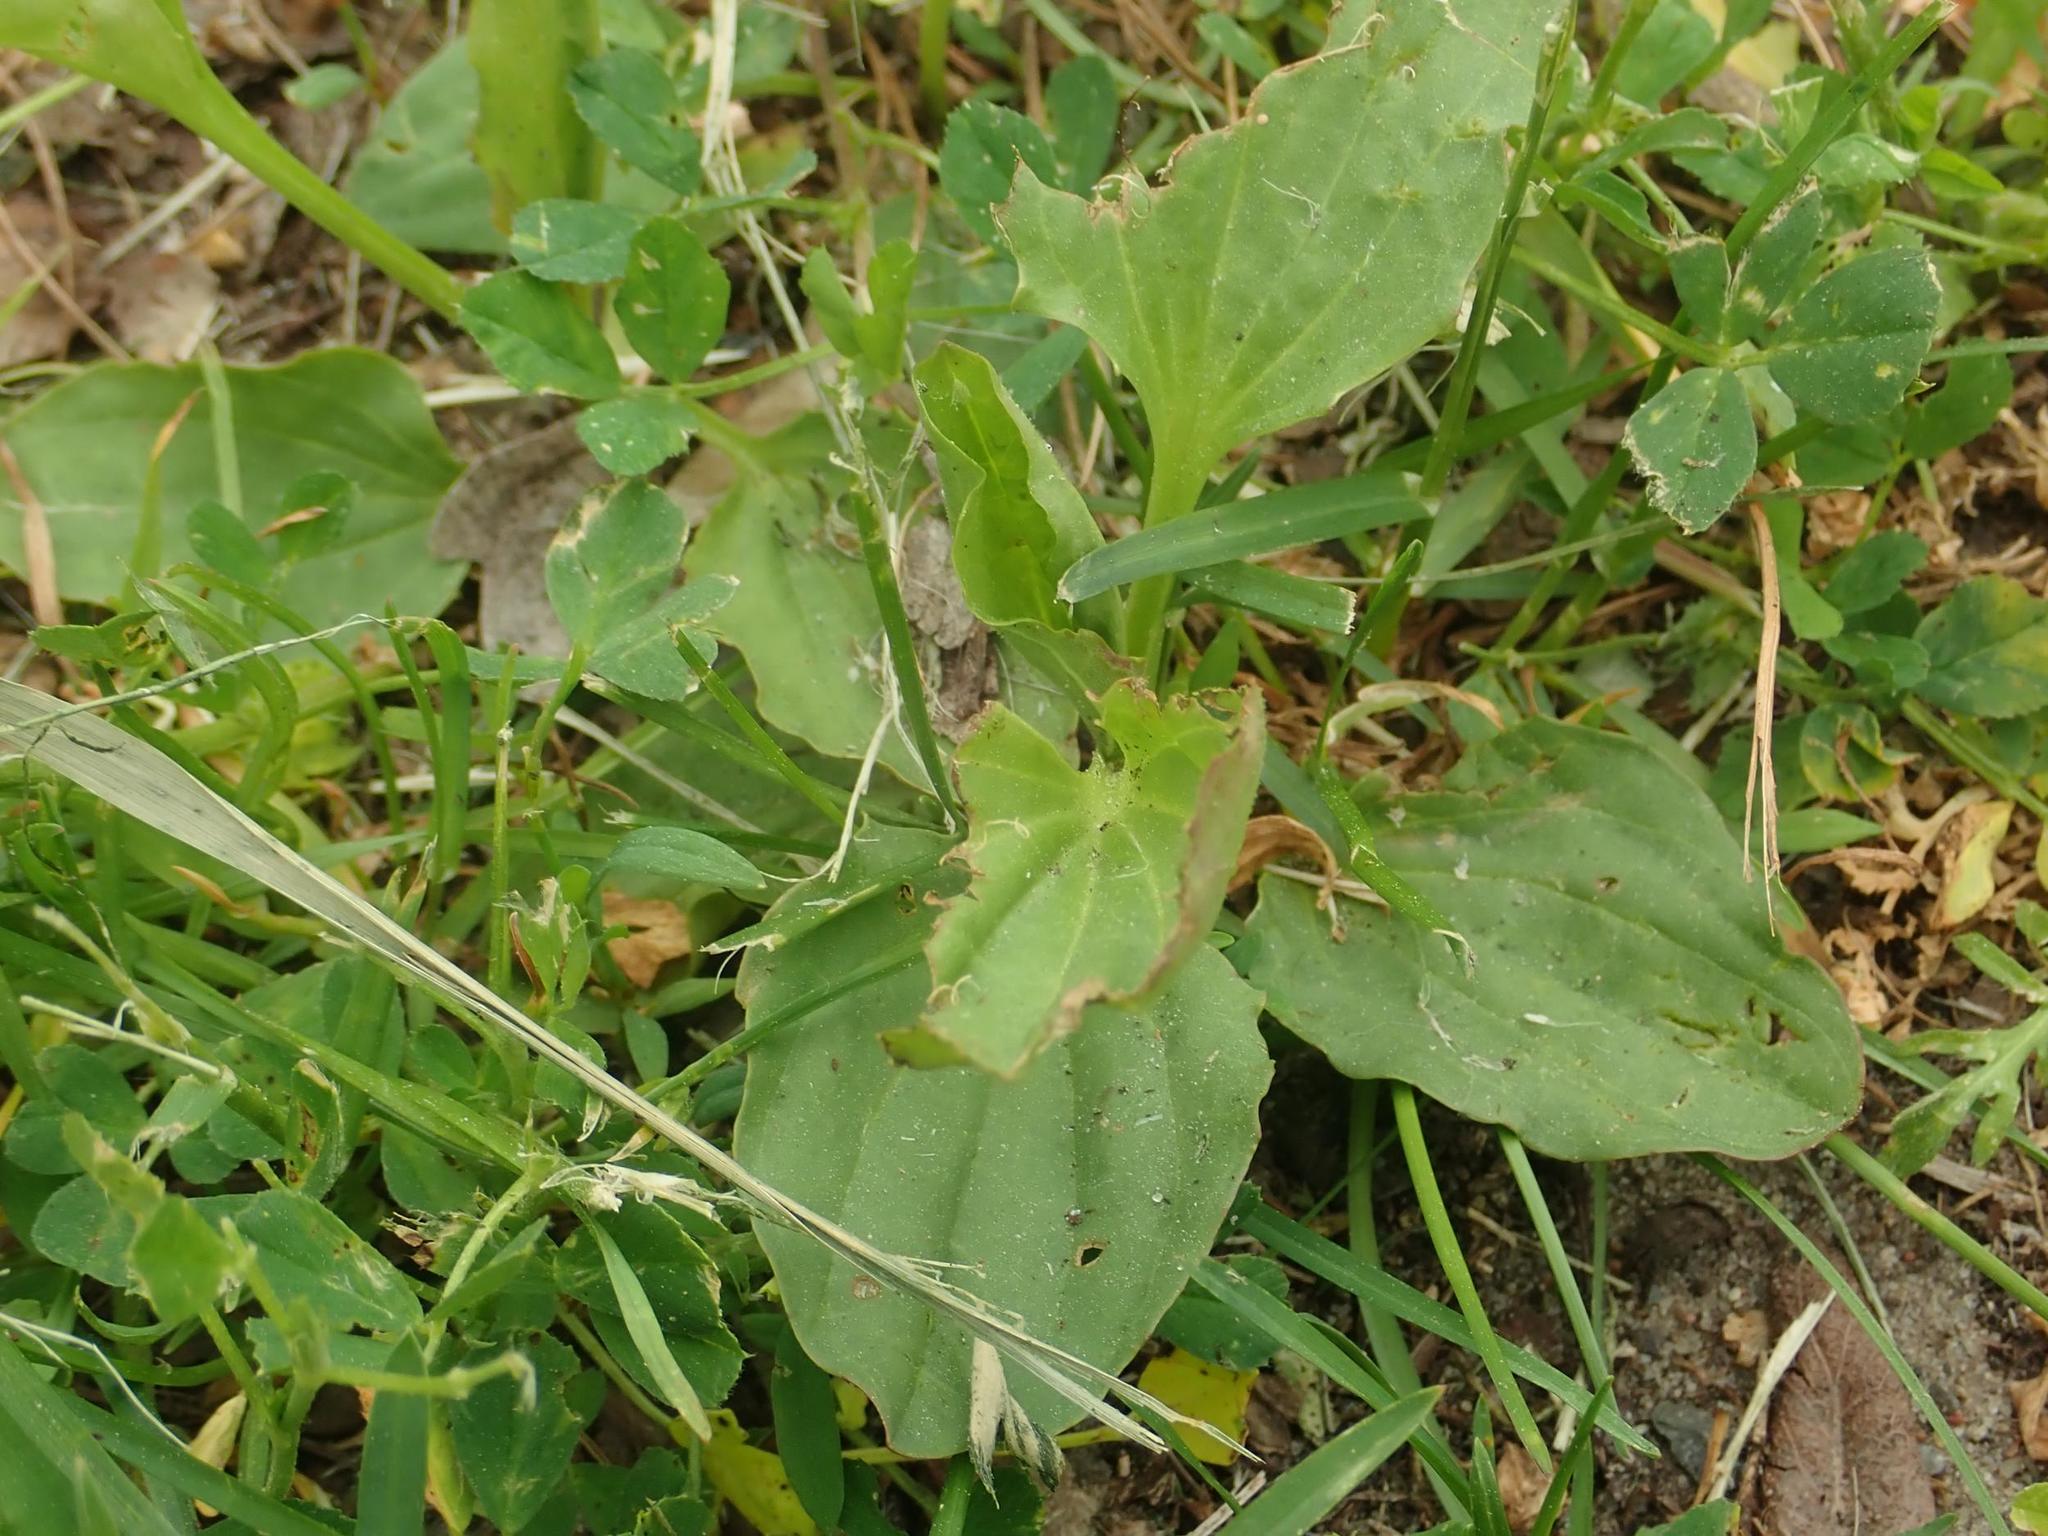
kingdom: Plantae
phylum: Tracheophyta
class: Magnoliopsida
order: Lamiales
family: Plantaginaceae
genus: Plantago
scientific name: Plantago major
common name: Common plantain
